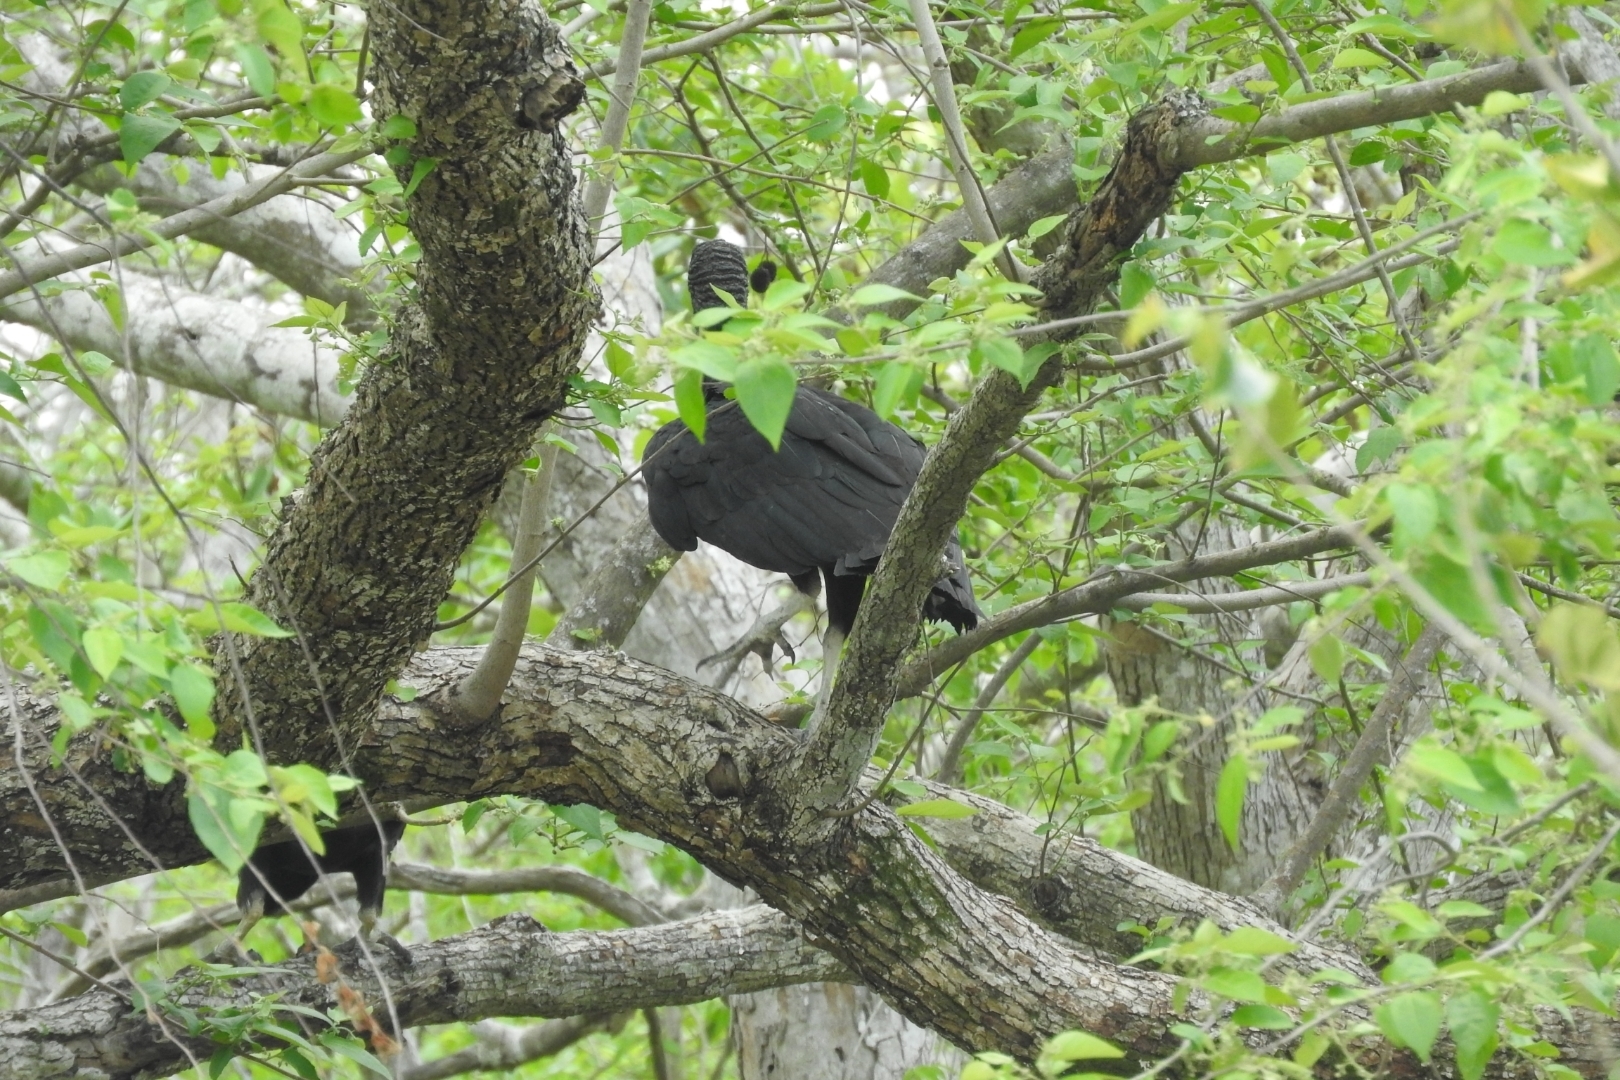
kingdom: Animalia
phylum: Chordata
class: Aves
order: Accipitriformes
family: Cathartidae
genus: Coragyps
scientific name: Coragyps atratus
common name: Black vulture
